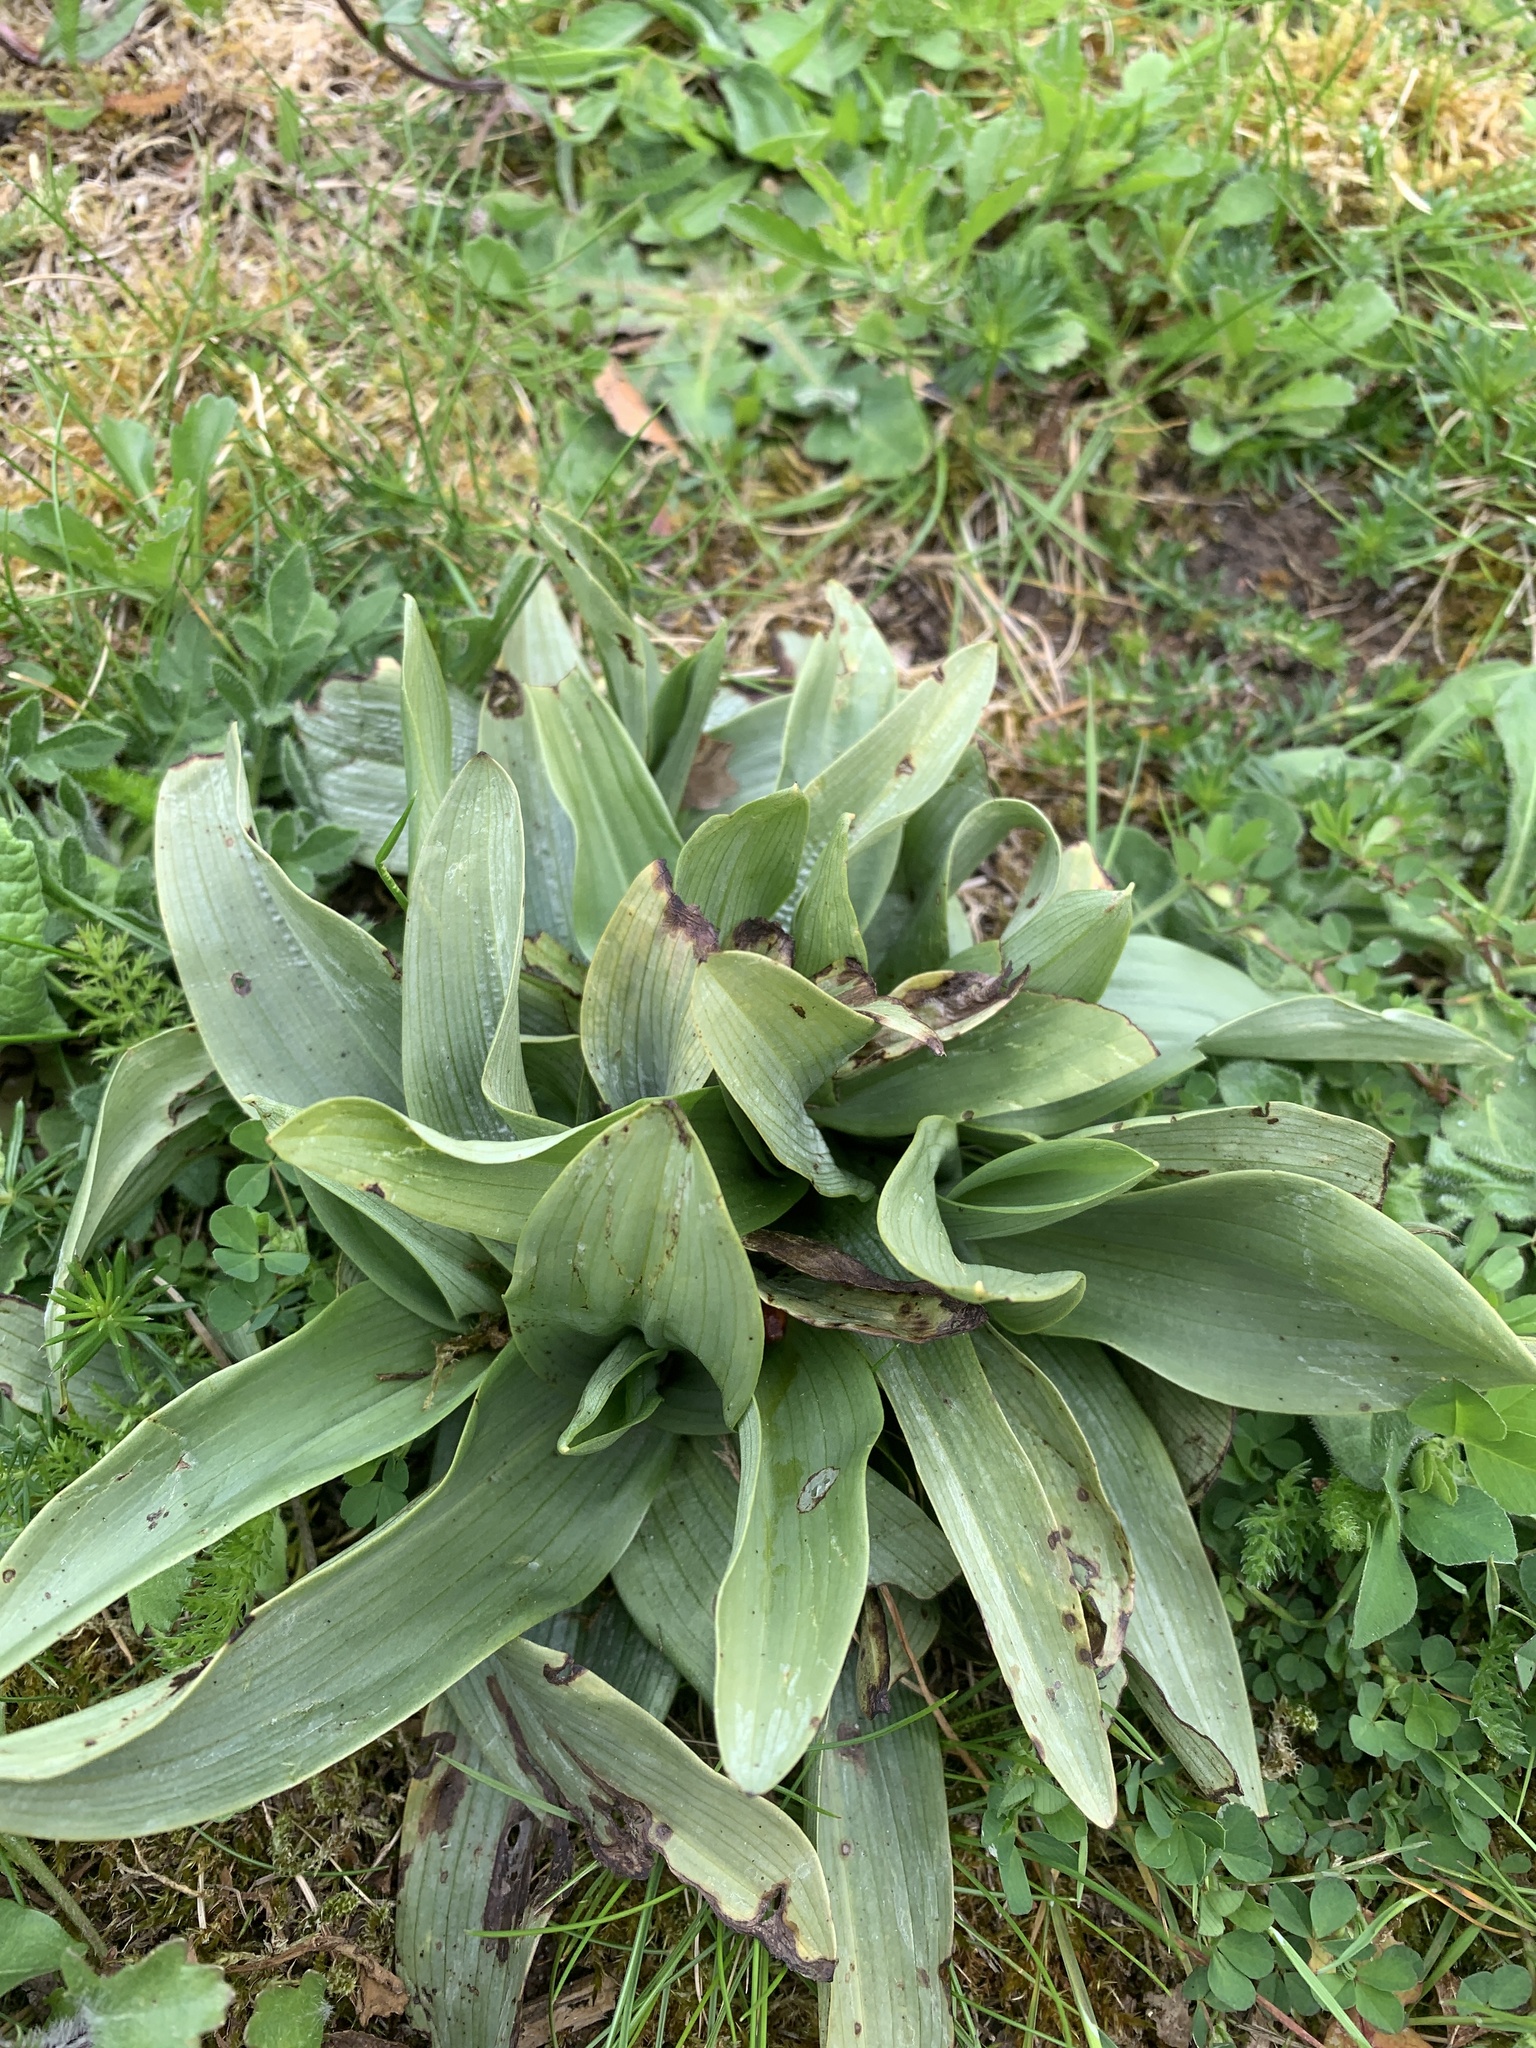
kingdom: Plantae
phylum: Tracheophyta
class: Liliopsida
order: Asparagales
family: Orchidaceae
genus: Ophrys
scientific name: Ophrys apifera
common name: Bee orchid
